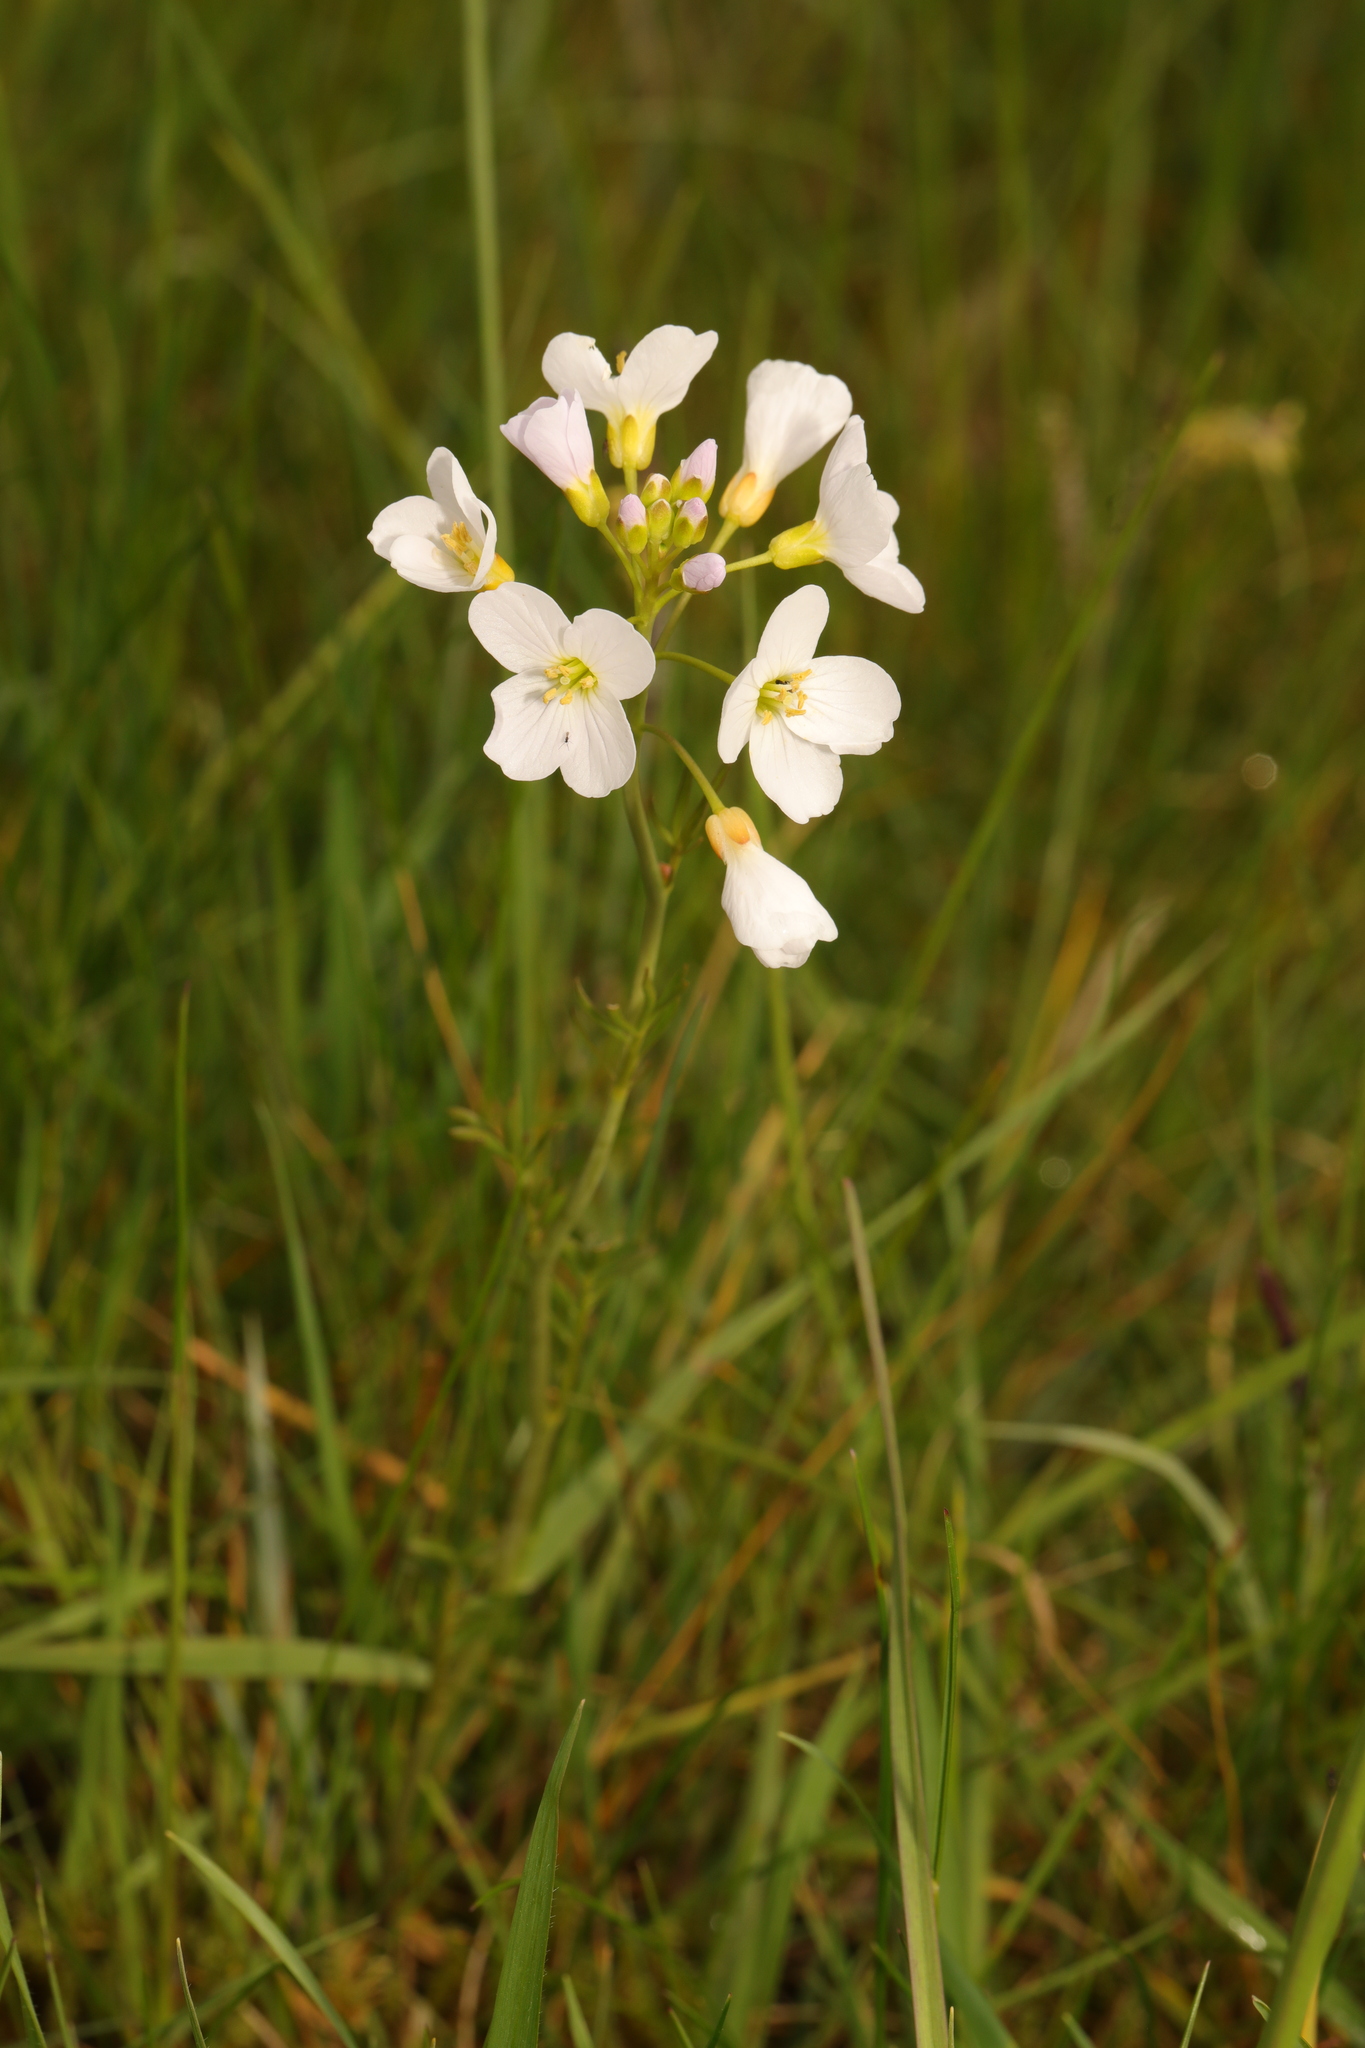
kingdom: Plantae
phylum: Tracheophyta
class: Magnoliopsida
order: Brassicales
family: Brassicaceae
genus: Cardamine
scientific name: Cardamine pratensis
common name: Cuckoo flower
